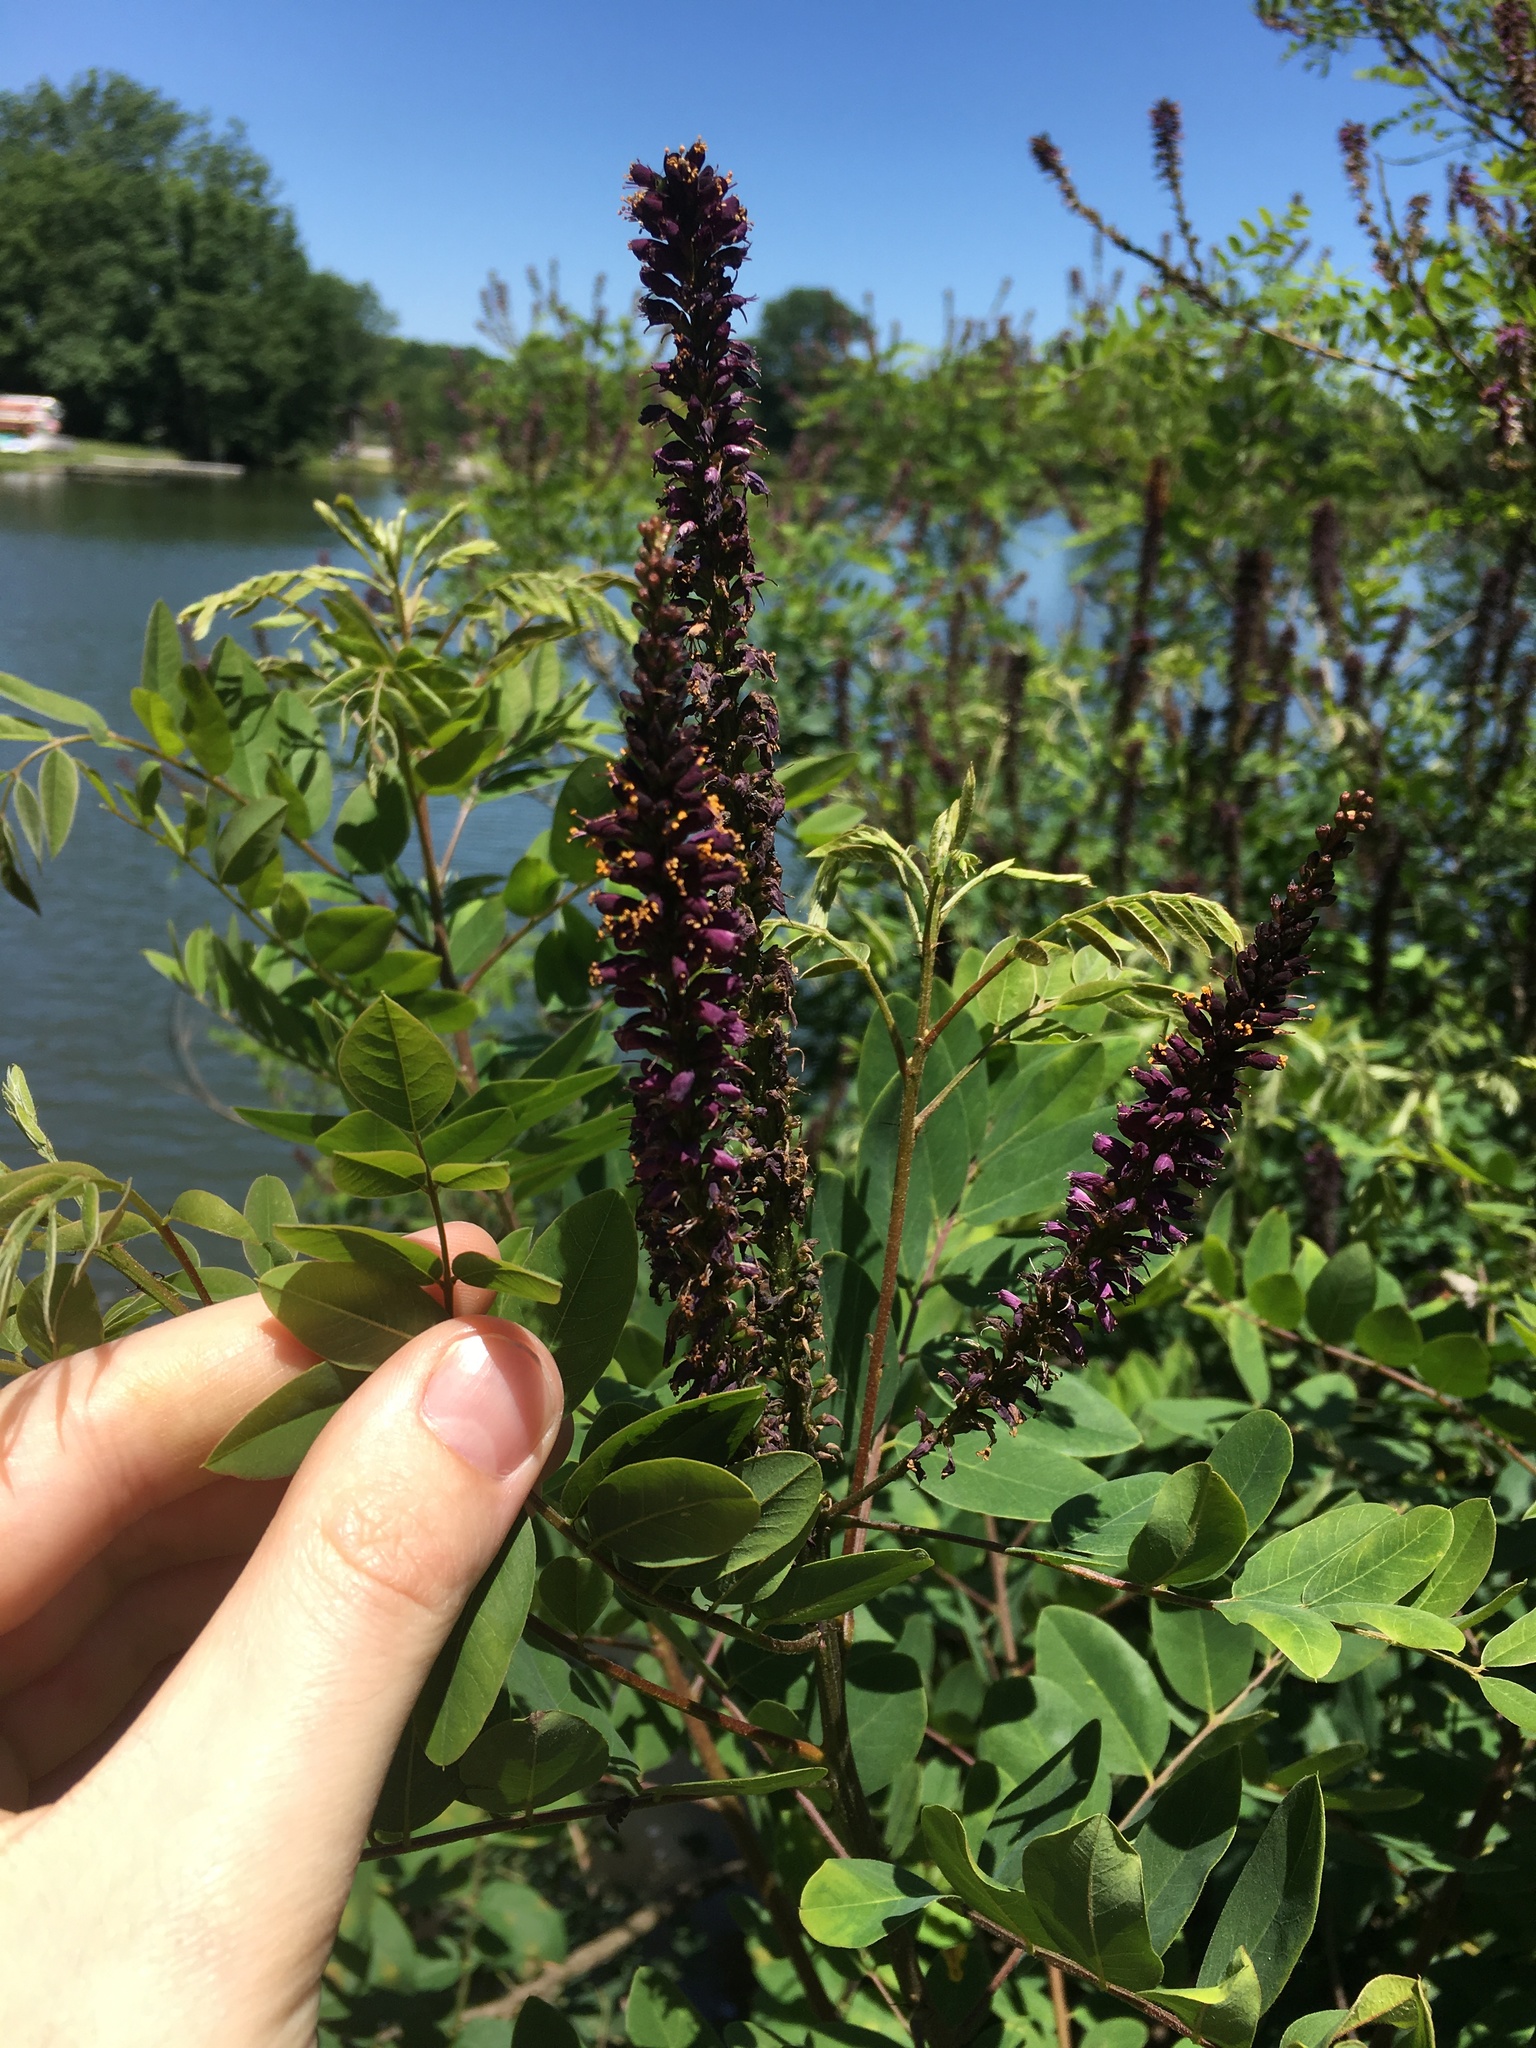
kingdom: Plantae
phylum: Tracheophyta
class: Magnoliopsida
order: Fabales
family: Fabaceae
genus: Amorpha
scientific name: Amorpha fruticosa
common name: False indigo
